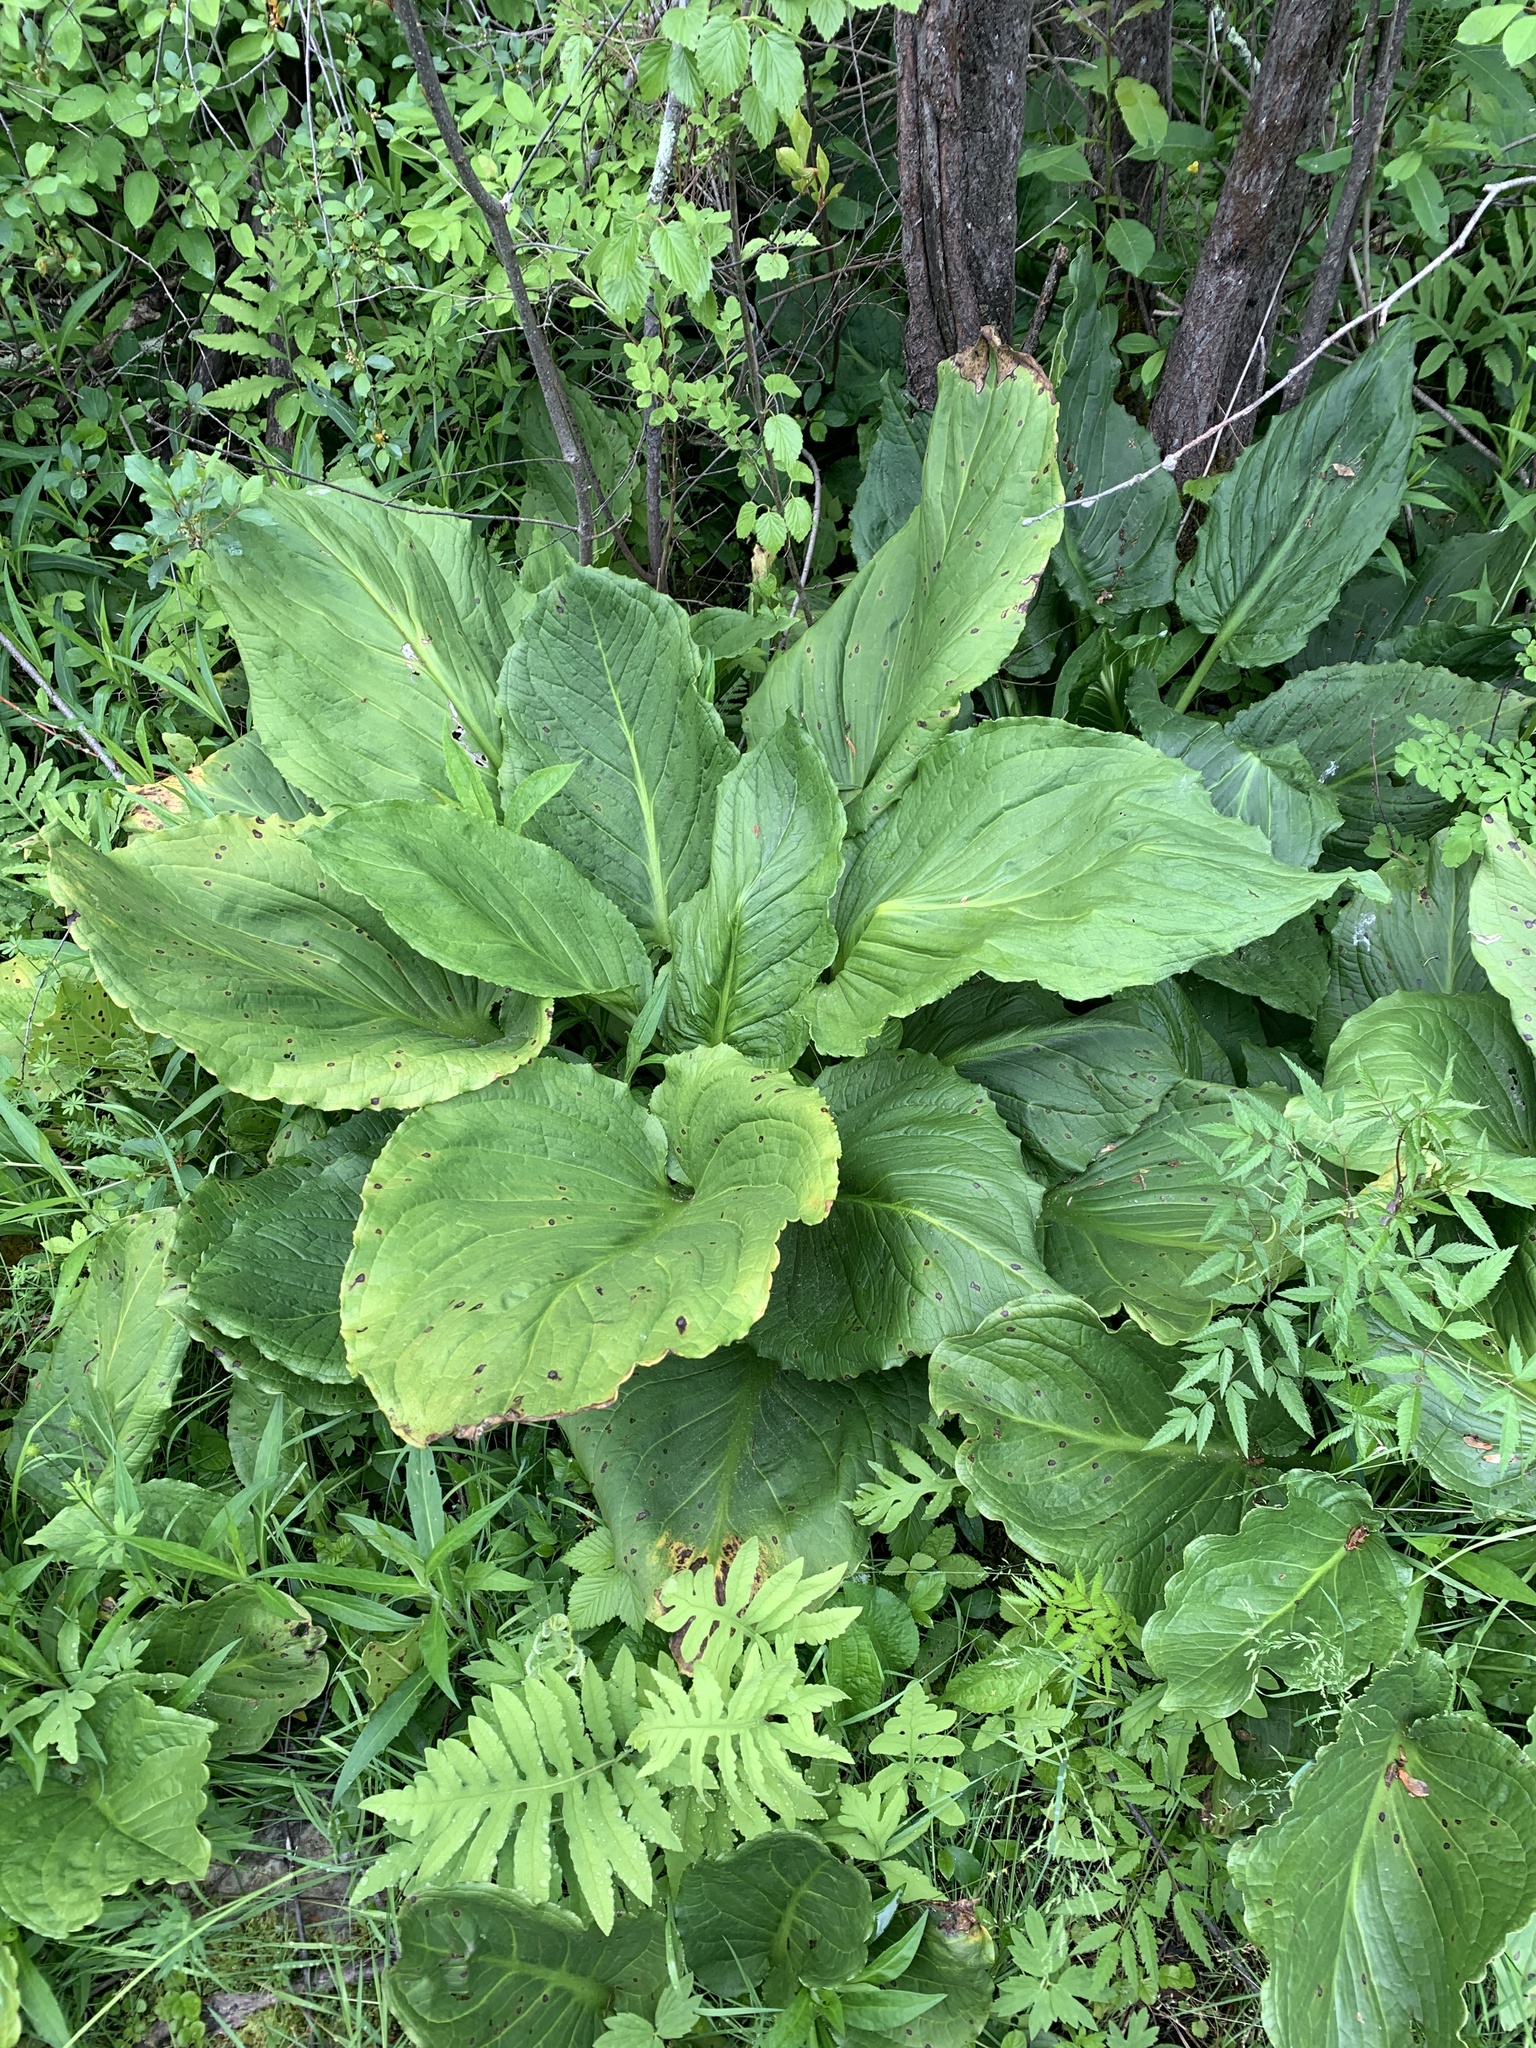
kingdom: Plantae
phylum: Tracheophyta
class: Liliopsida
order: Alismatales
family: Araceae
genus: Symplocarpus
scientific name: Symplocarpus foetidus
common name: Eastern skunk cabbage
